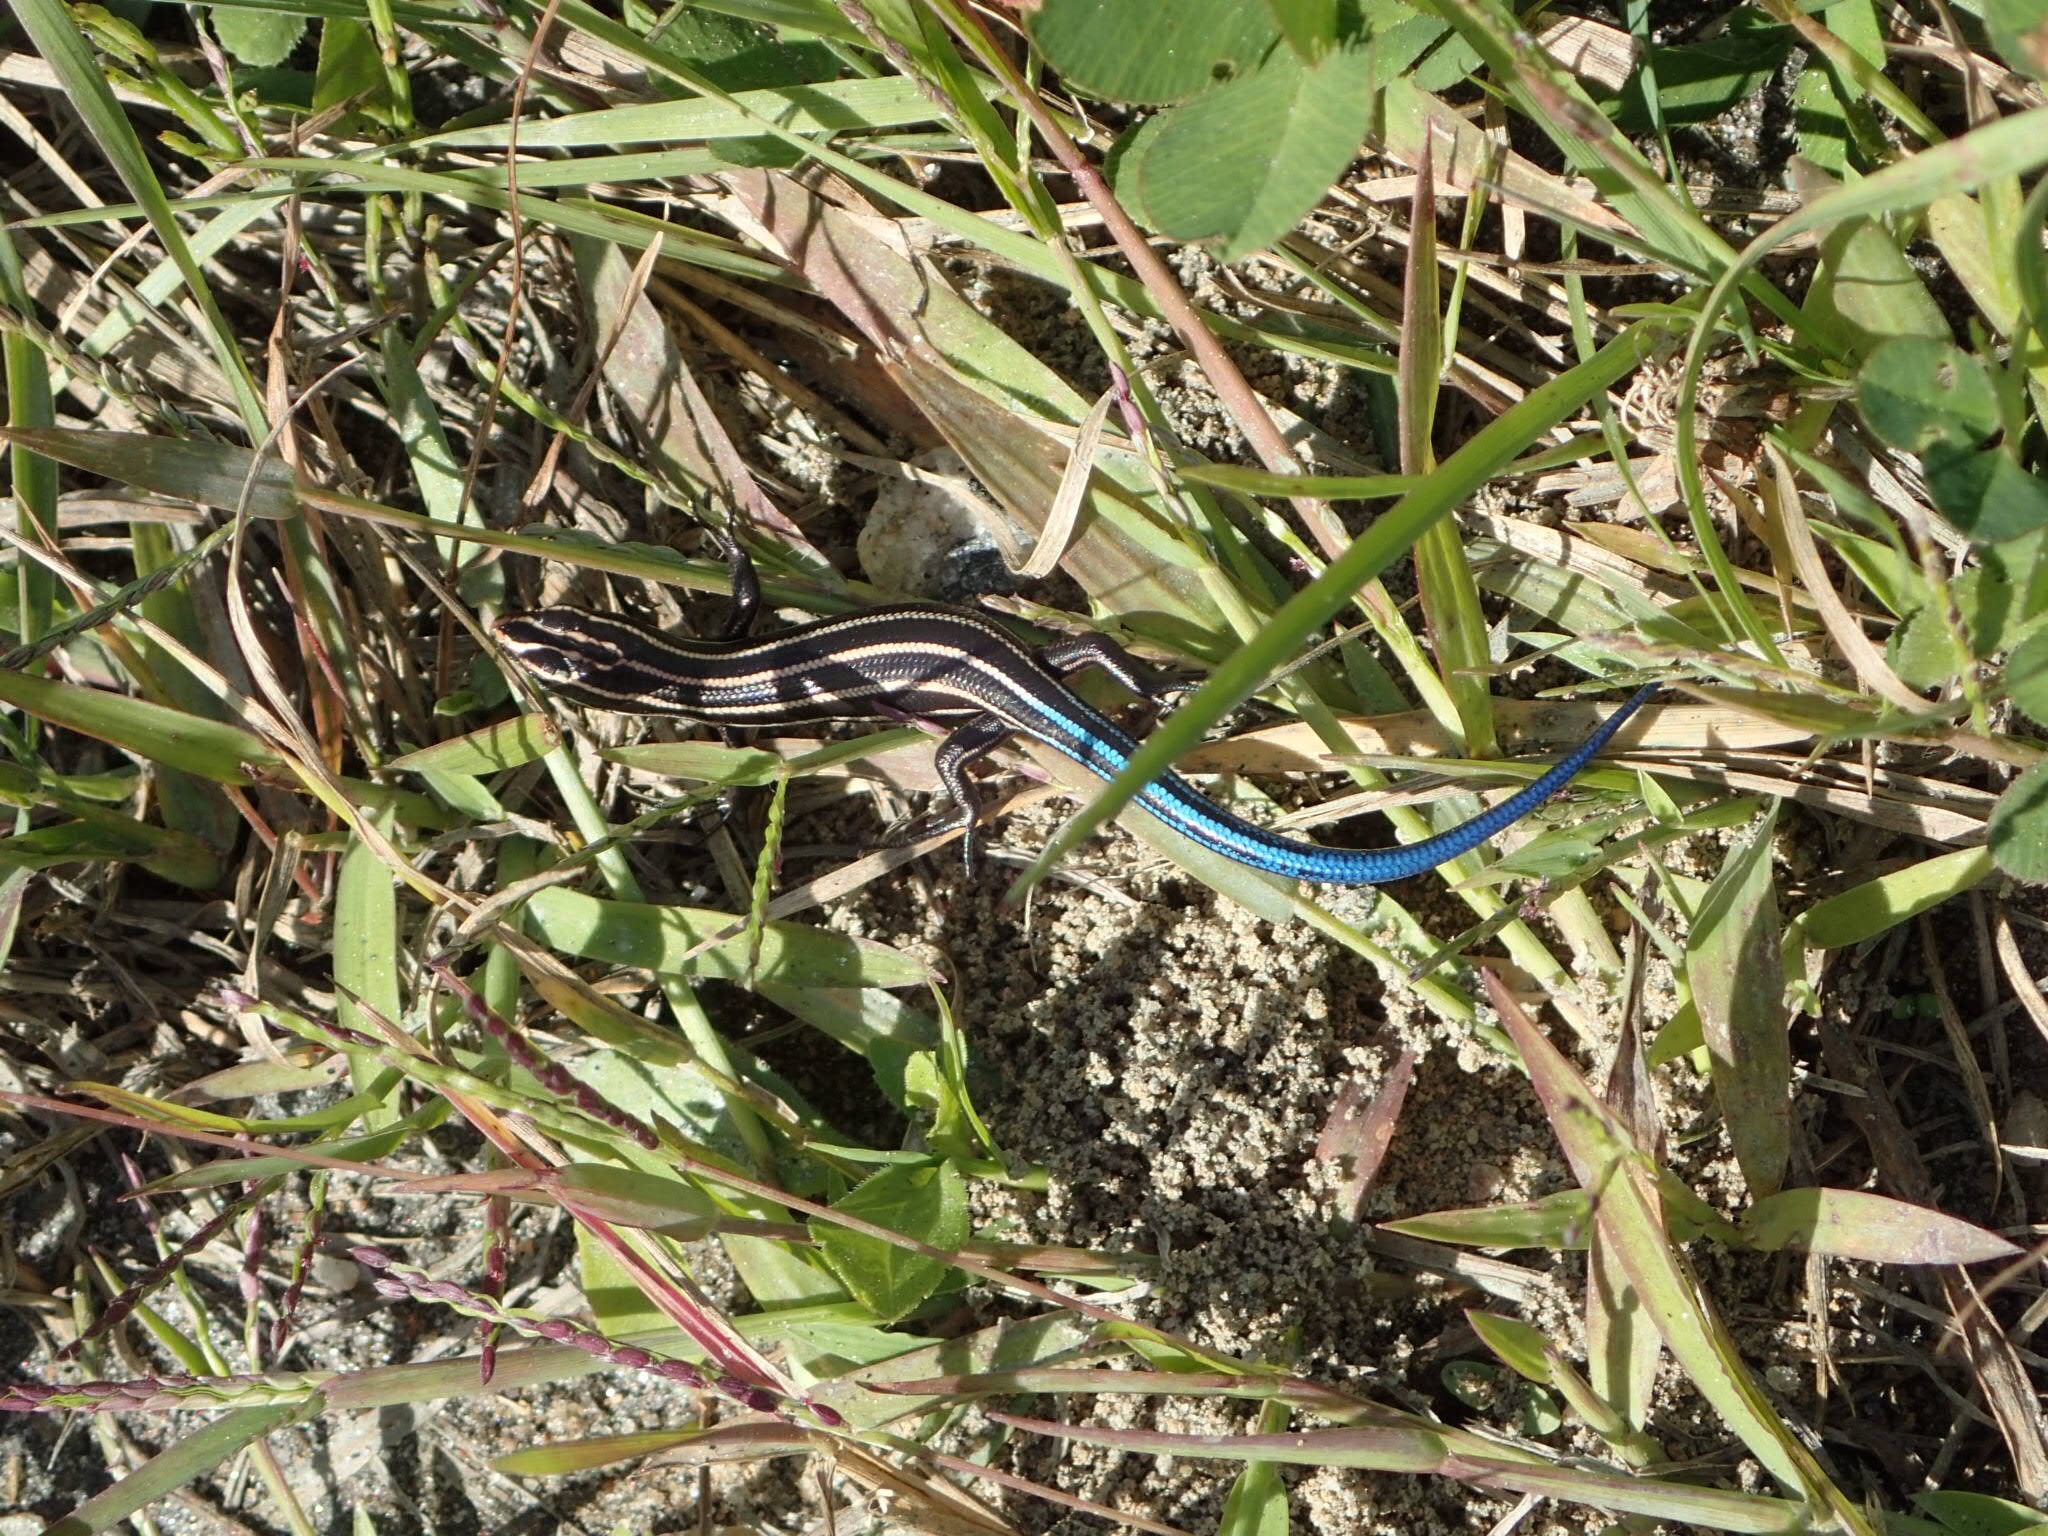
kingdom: Animalia
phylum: Chordata
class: Squamata
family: Scincidae
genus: Plestiodon
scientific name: Plestiodon fasciatus
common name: Five-lined skink
